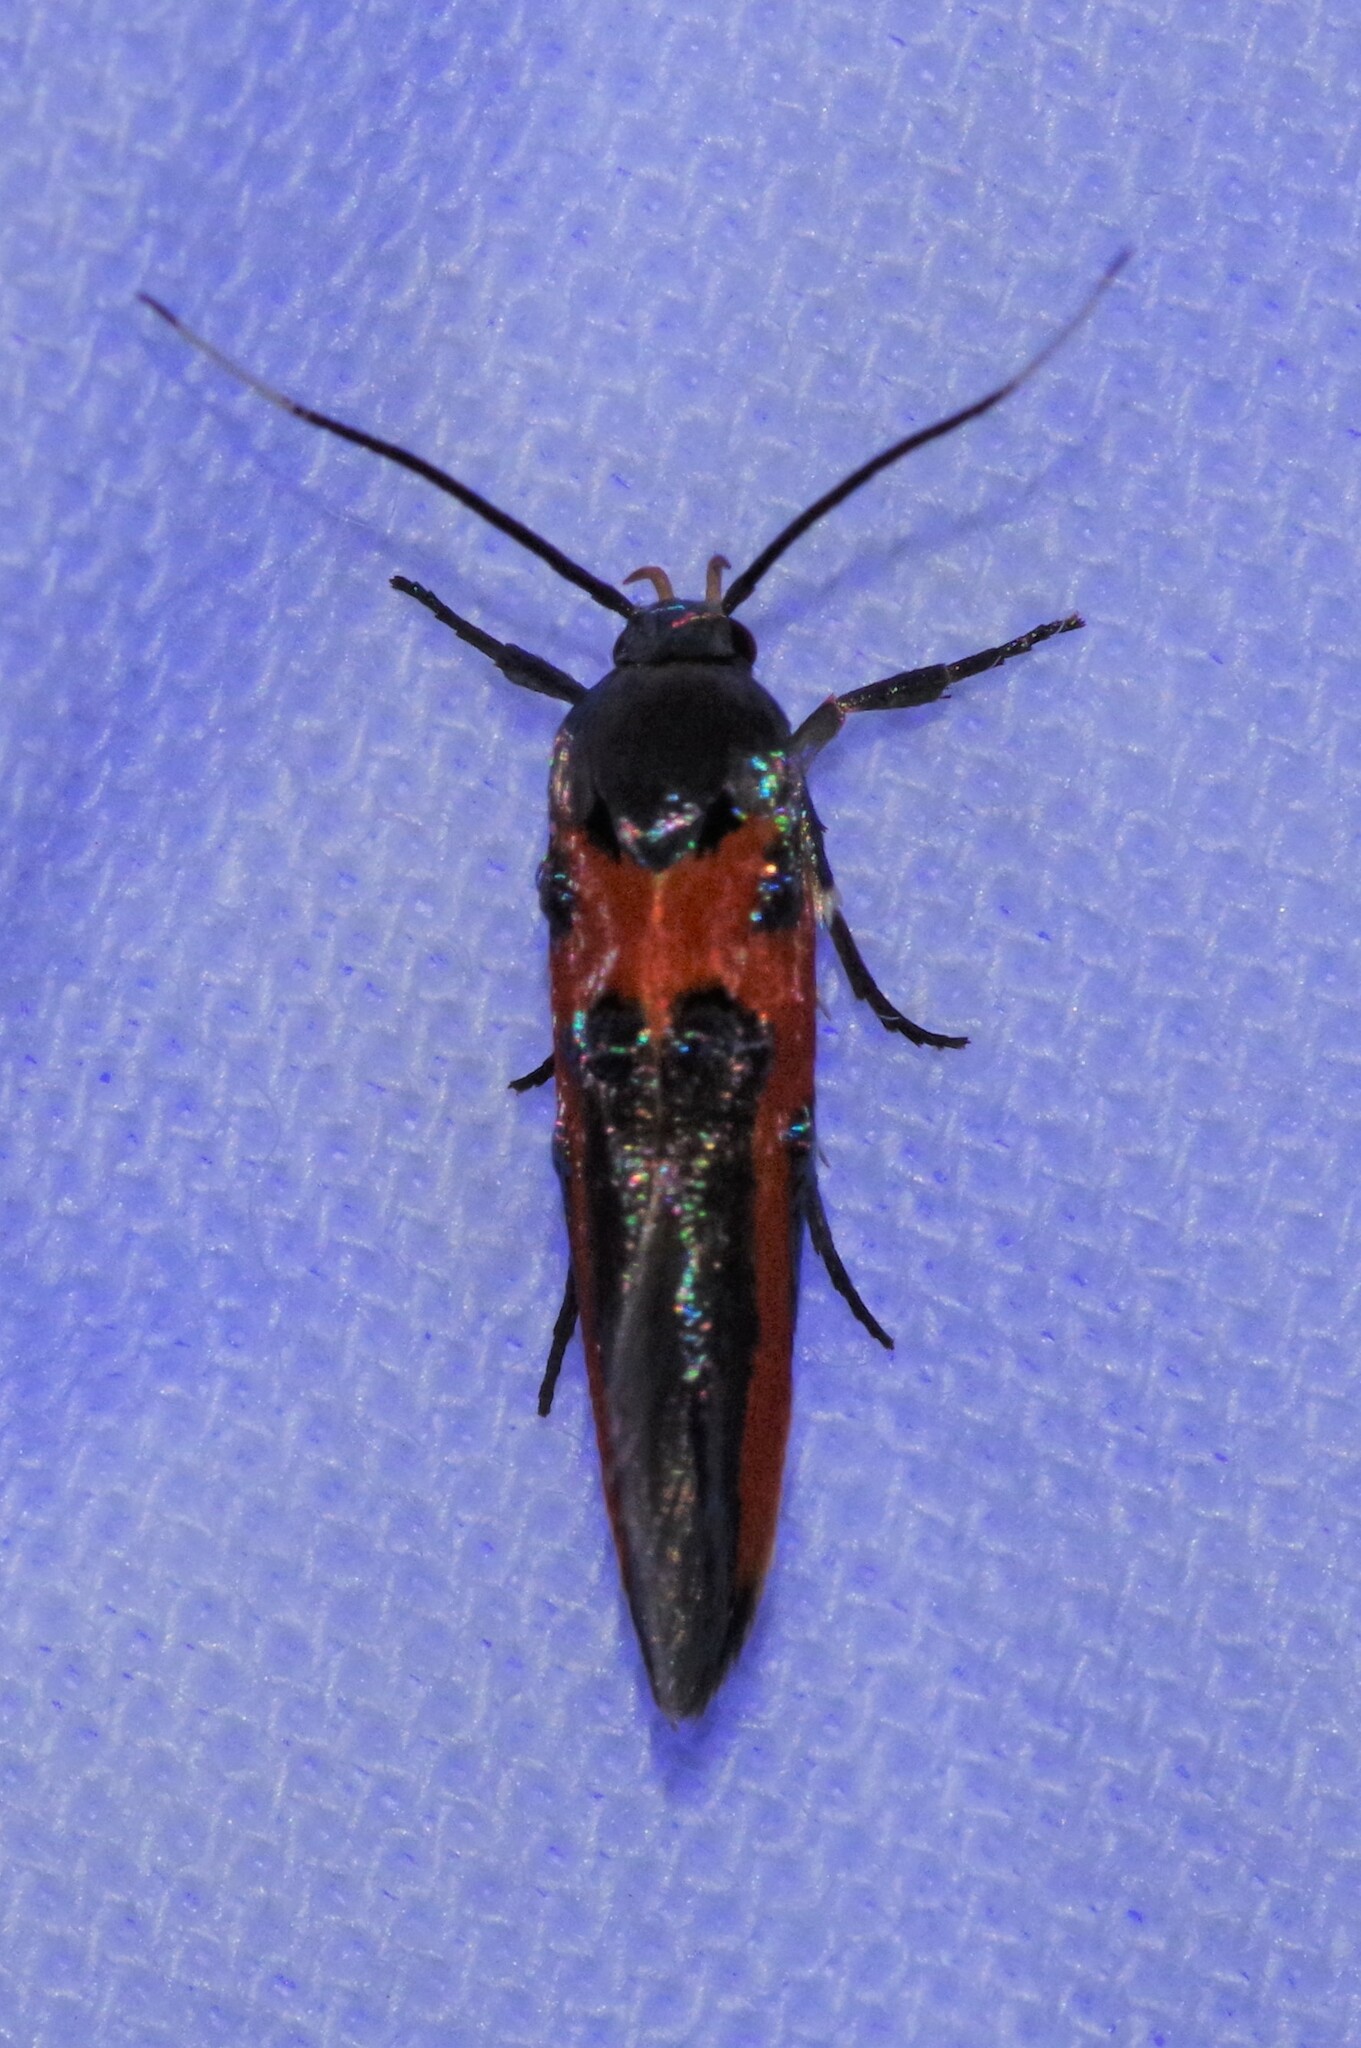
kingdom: Animalia
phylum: Arthropoda
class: Insecta
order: Lepidoptera
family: Cosmopterigidae
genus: Euclemensia
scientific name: Euclemensia bassettella
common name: Kermes scale moth
